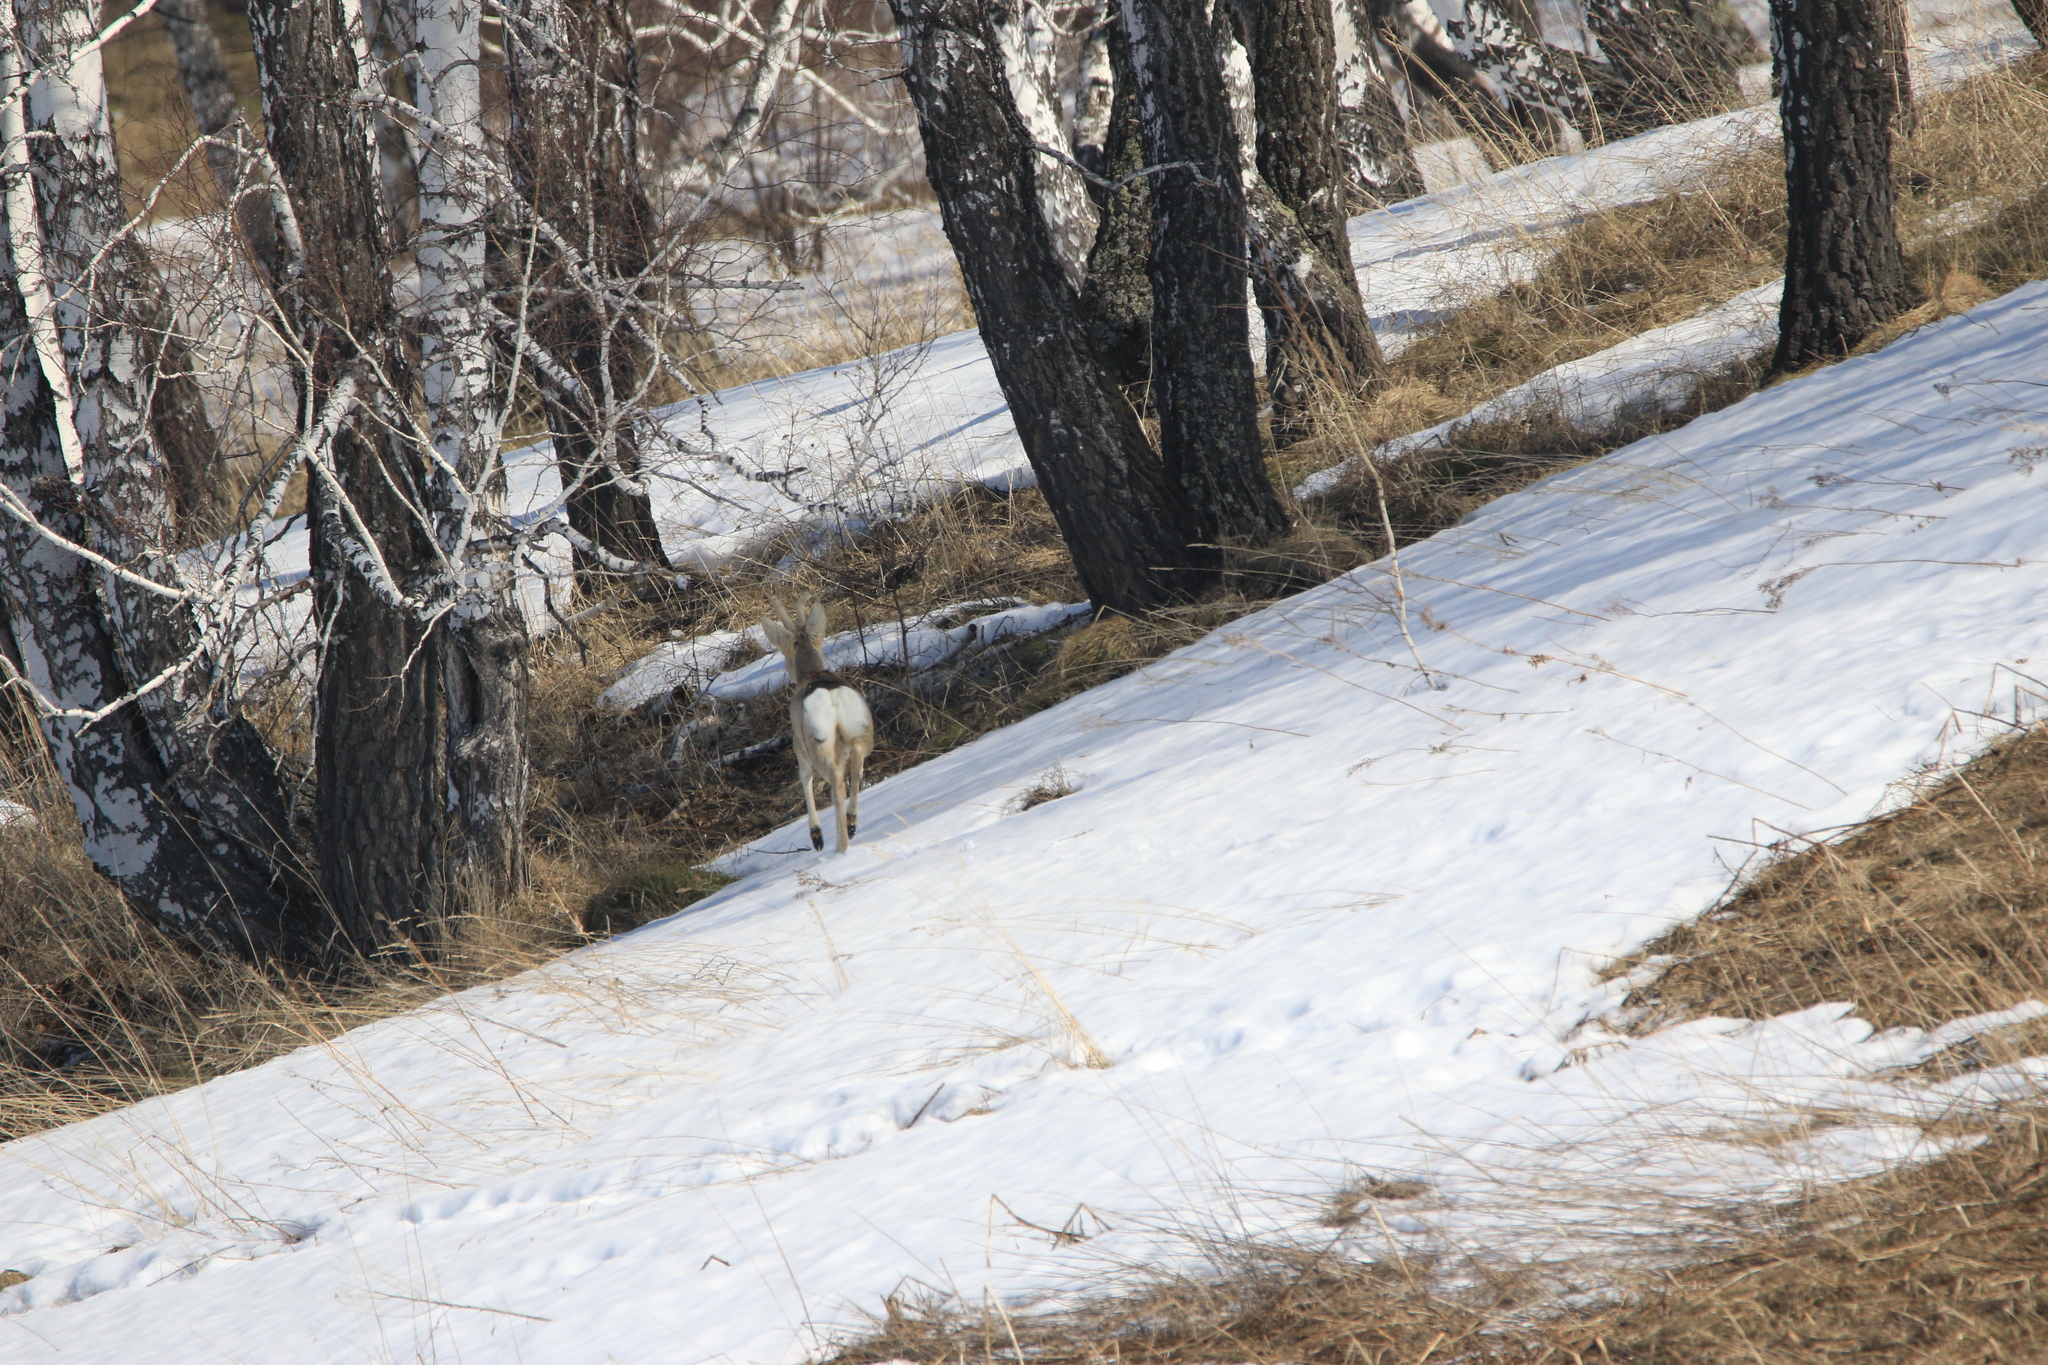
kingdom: Animalia
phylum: Chordata
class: Mammalia
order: Artiodactyla
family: Cervidae
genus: Capreolus
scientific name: Capreolus pygargus
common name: Siberian roe
